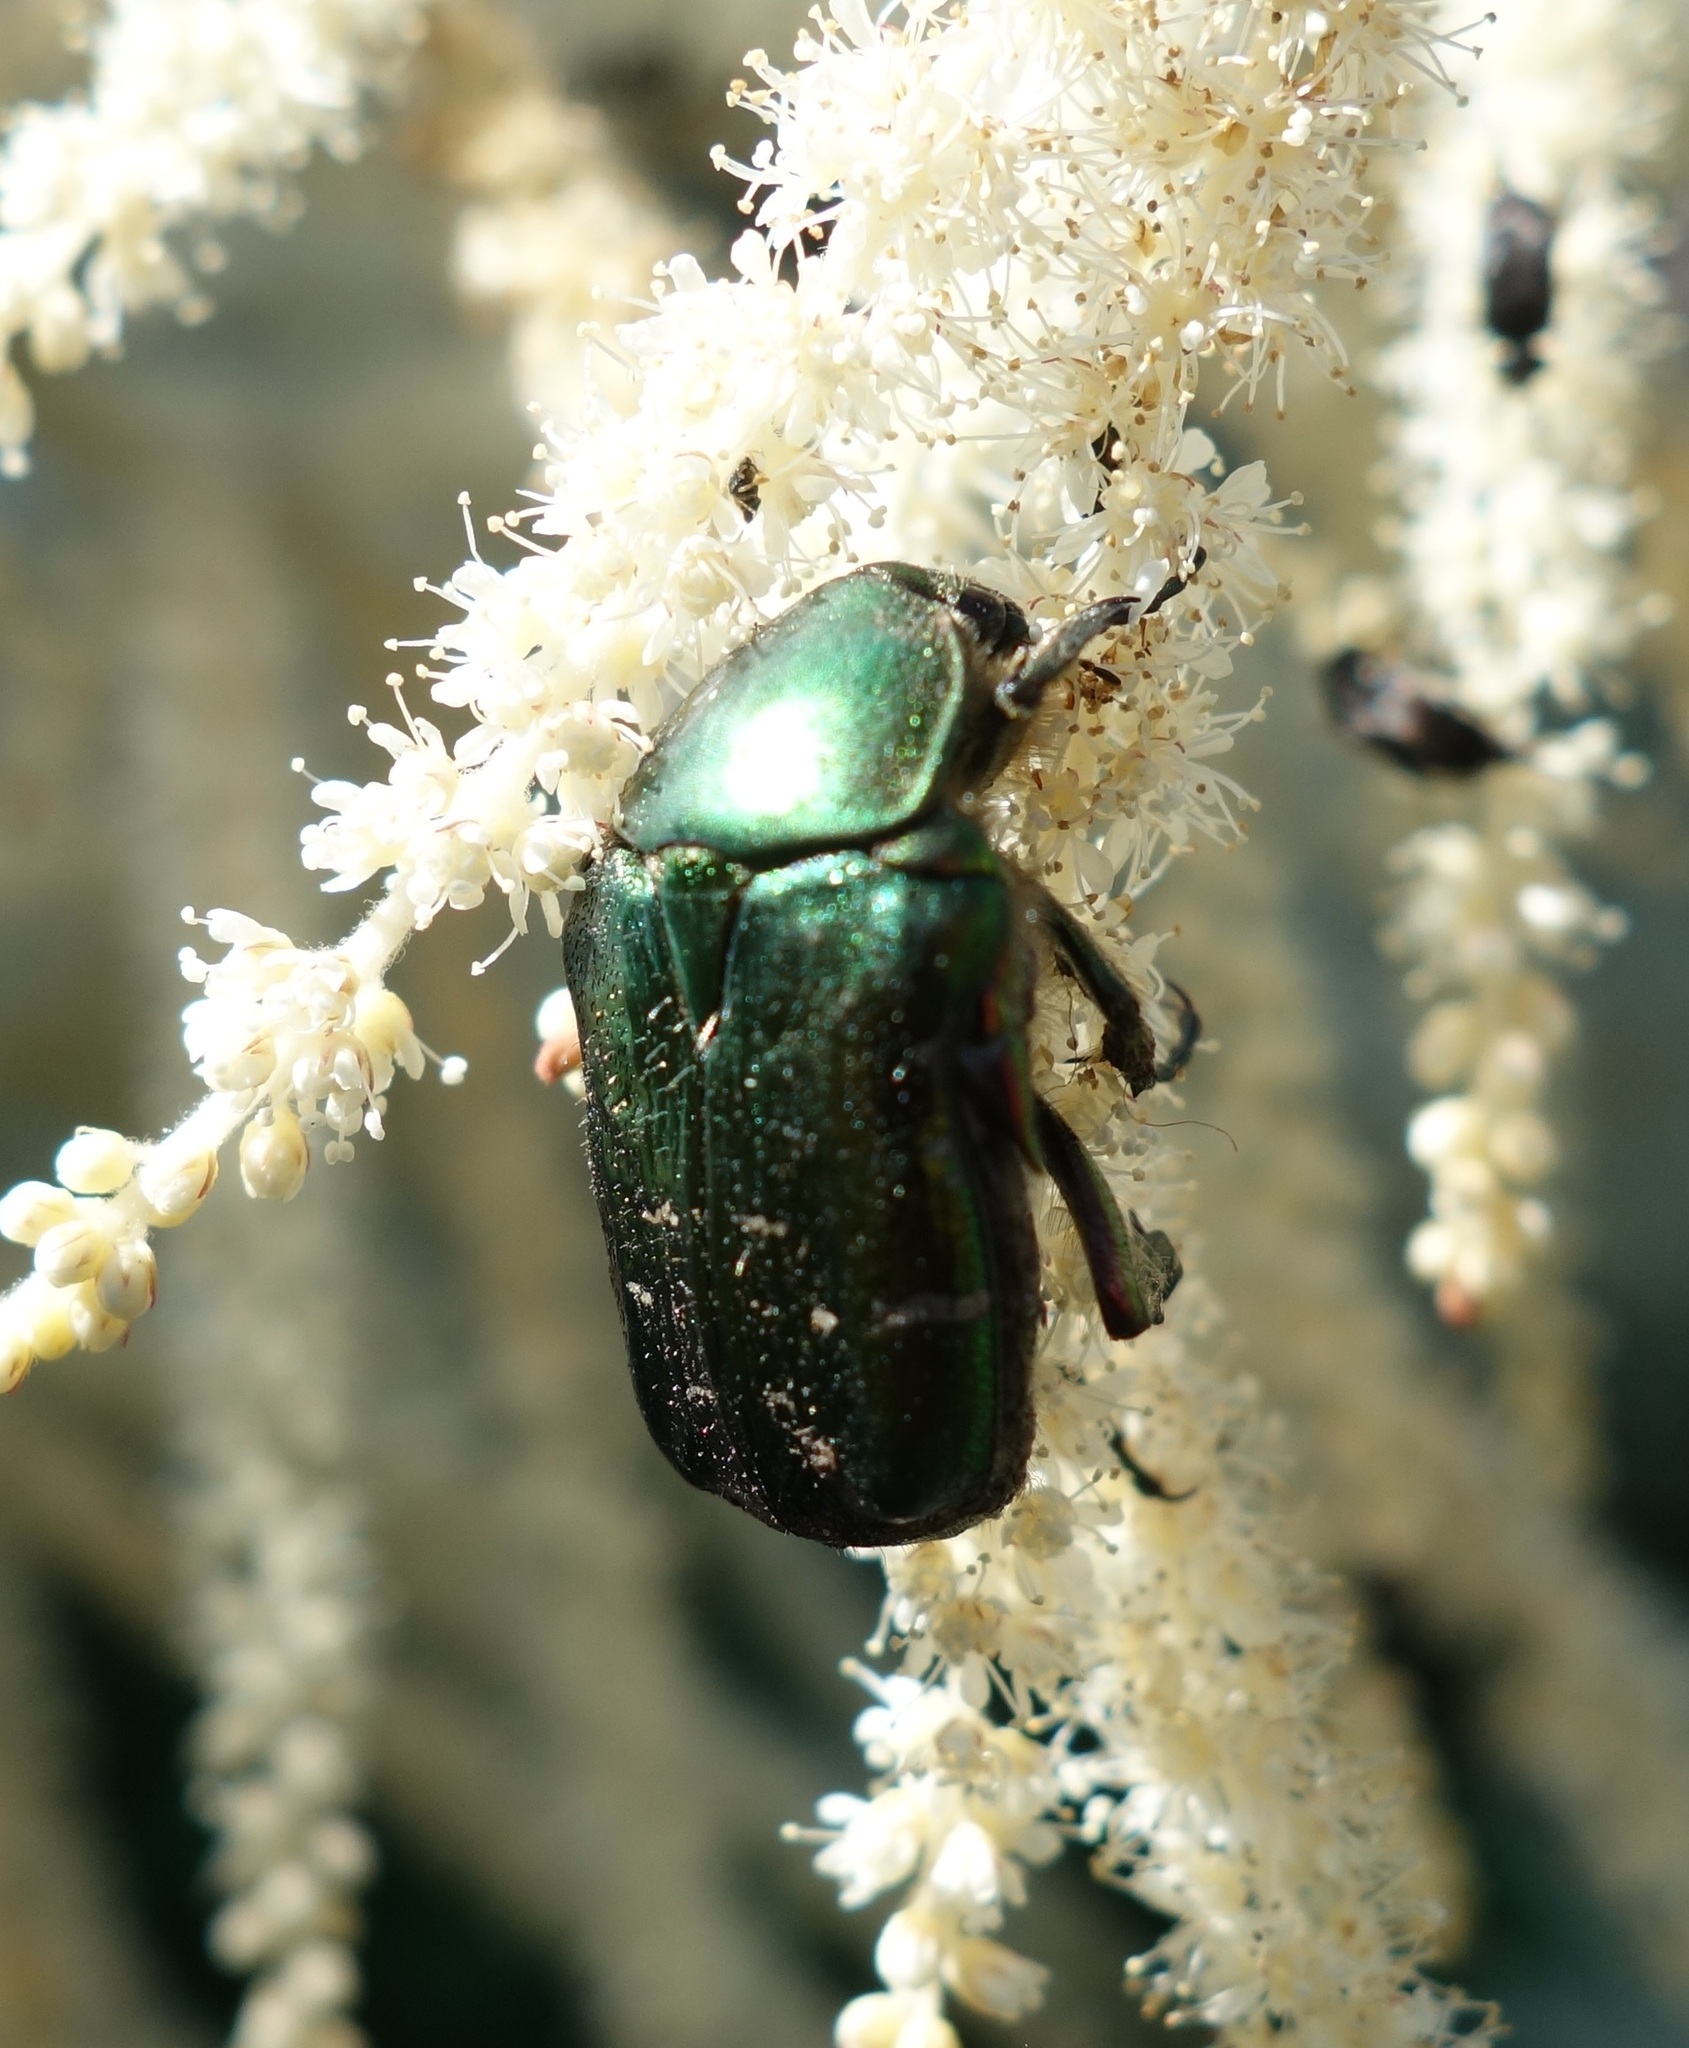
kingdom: Animalia
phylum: Arthropoda
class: Insecta
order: Coleoptera
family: Scarabaeidae
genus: Cetonia
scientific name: Cetonia aurata
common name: Rose chafer
